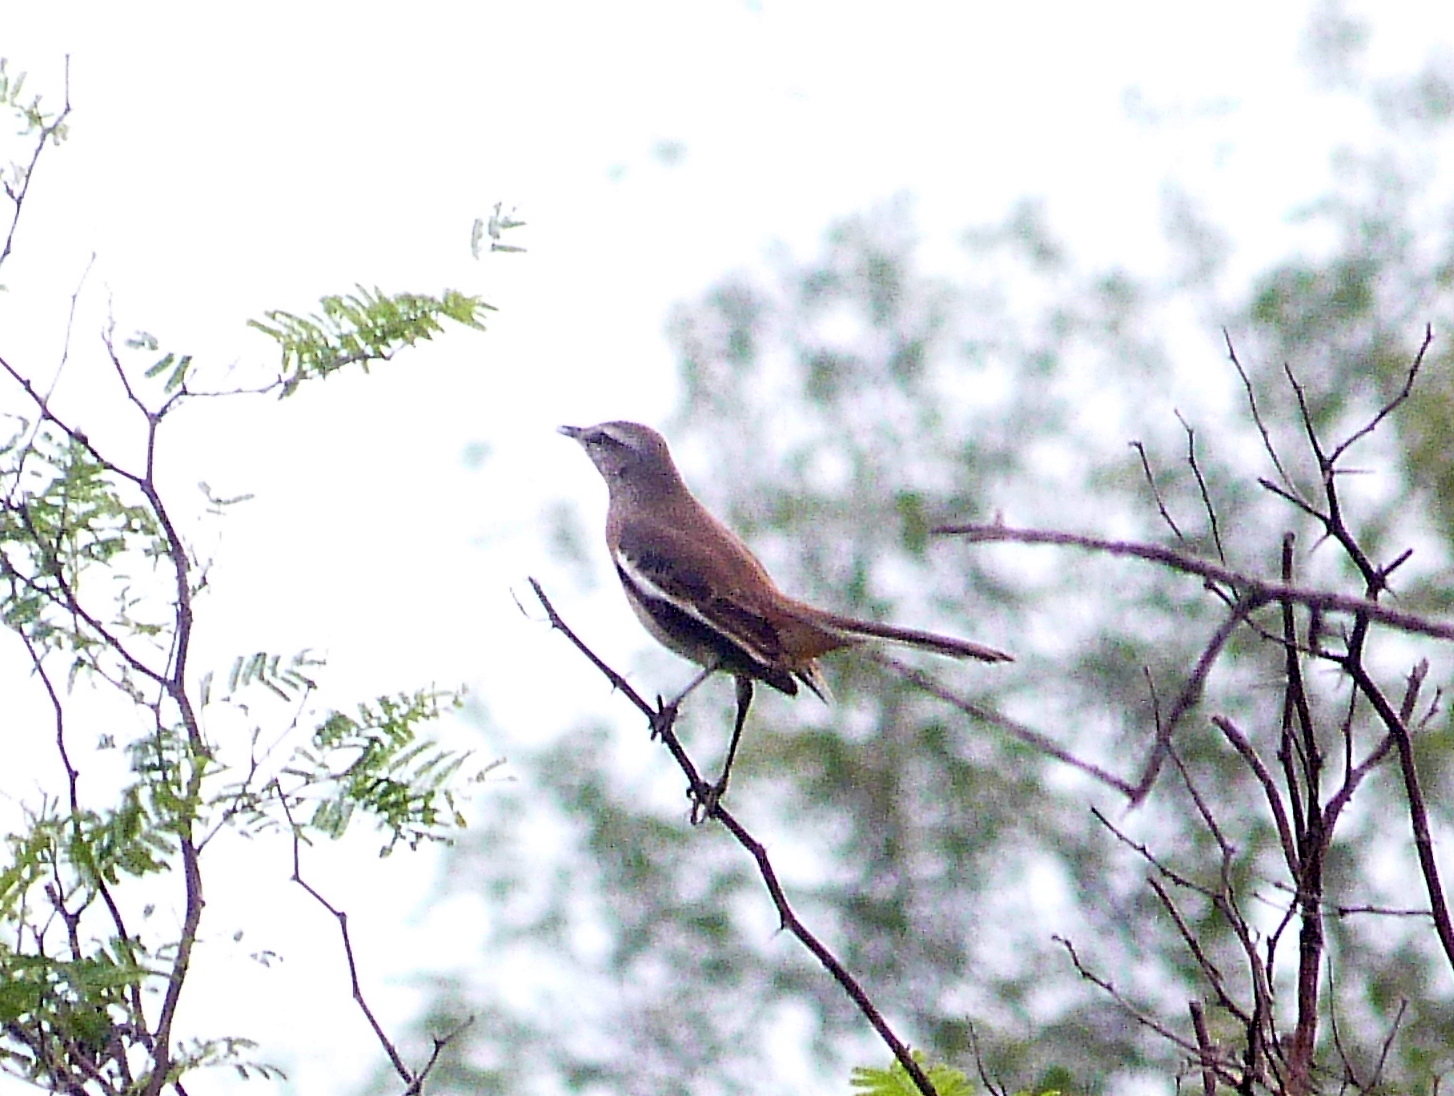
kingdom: Animalia
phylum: Chordata
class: Aves
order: Passeriformes
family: Mimidae
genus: Mimus
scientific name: Mimus triurus
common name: White-banded mockingbird
